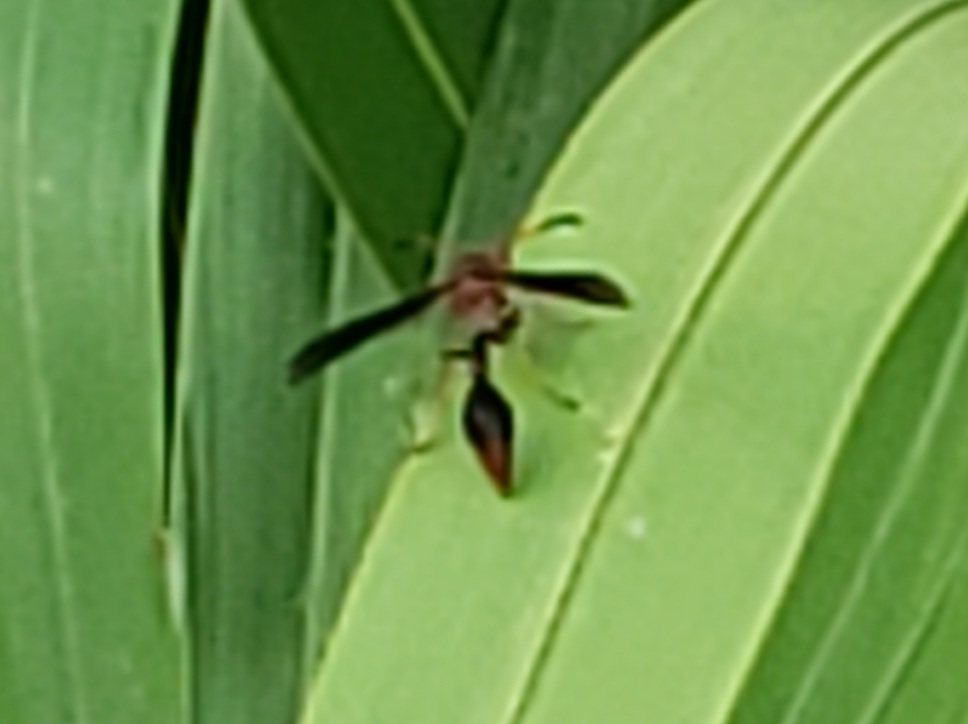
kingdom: Animalia
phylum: Arthropoda
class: Insecta
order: Hymenoptera
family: Eumenidae
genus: Zeta
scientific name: Zeta argillaceum
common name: Potter wasp
